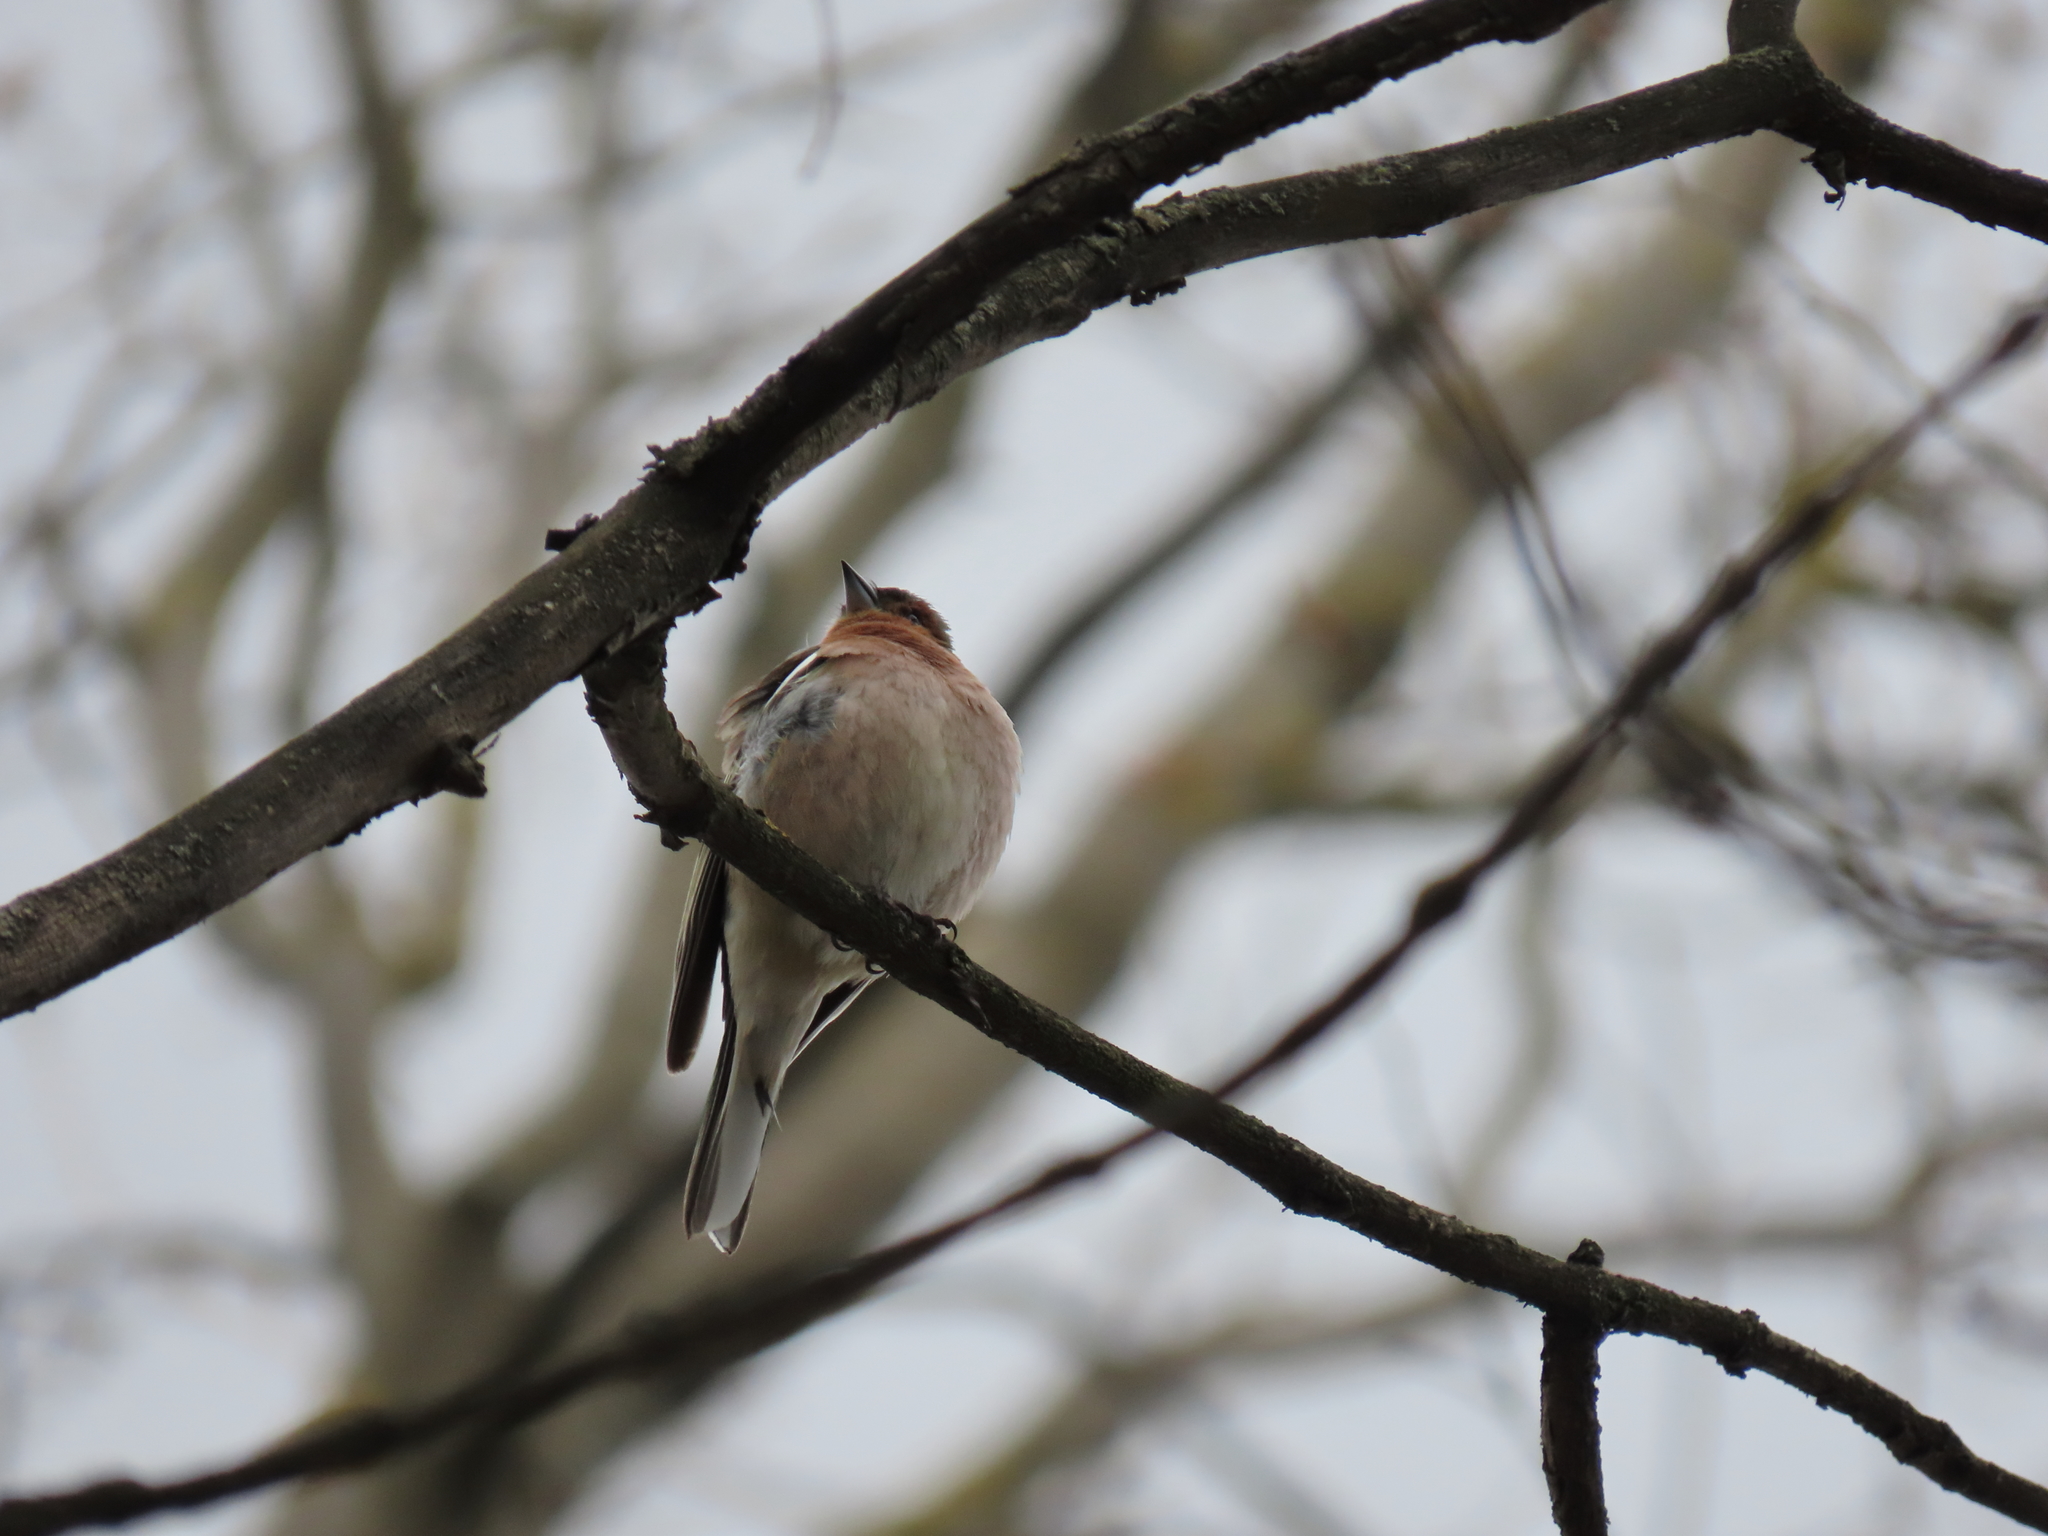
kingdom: Animalia
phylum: Chordata
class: Aves
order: Passeriformes
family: Fringillidae
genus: Fringilla
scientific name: Fringilla coelebs
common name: Common chaffinch
